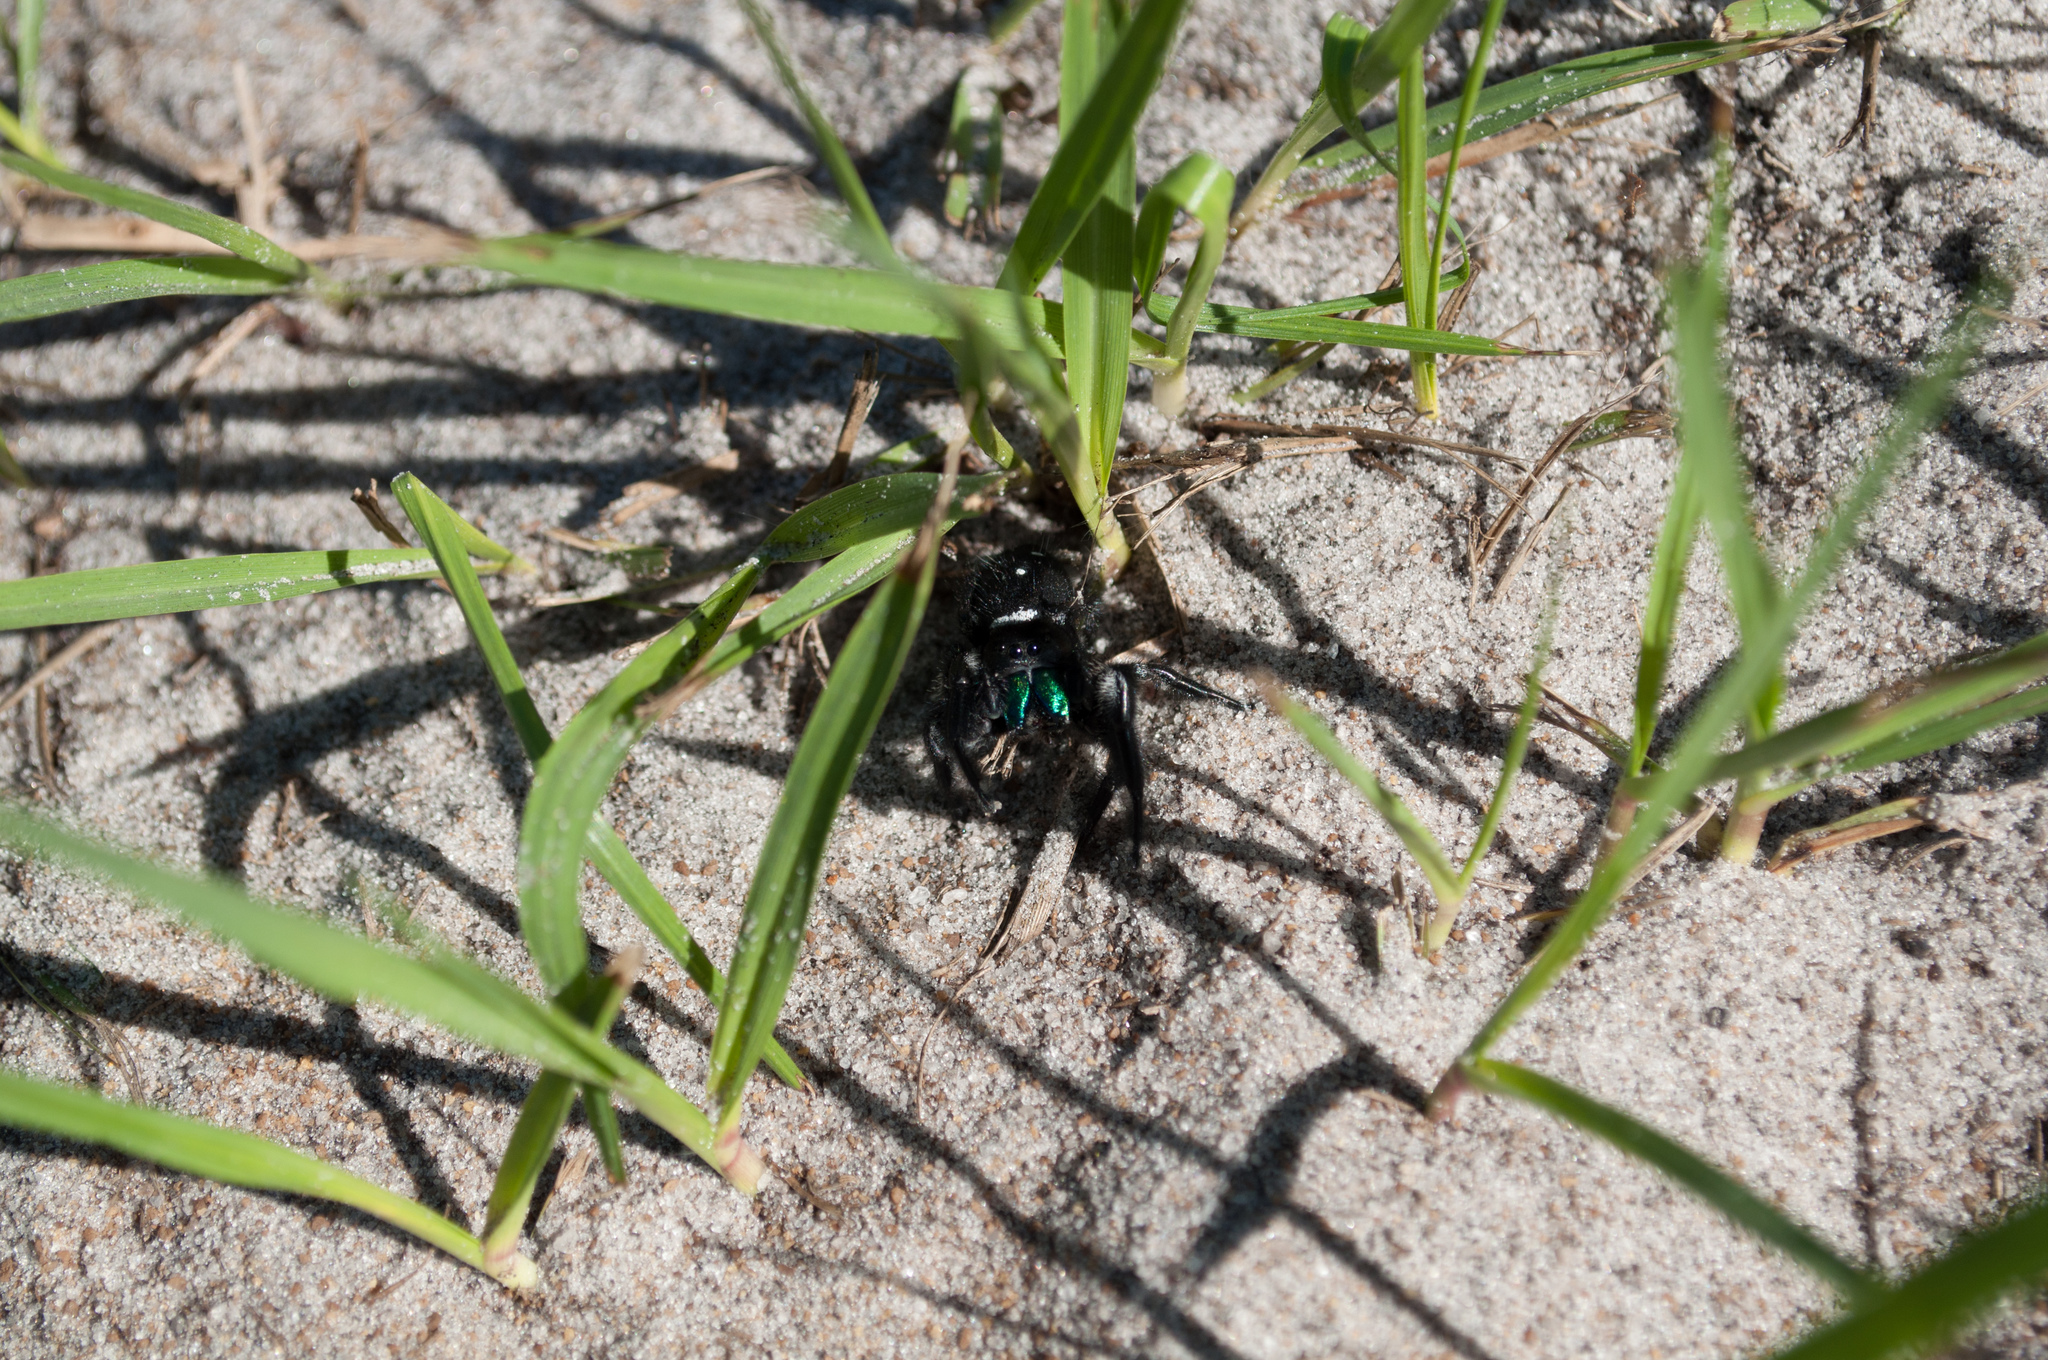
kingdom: Animalia
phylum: Arthropoda
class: Arachnida
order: Araneae
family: Salticidae
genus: Phidippus
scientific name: Phidippus regius
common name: Regal jumper
